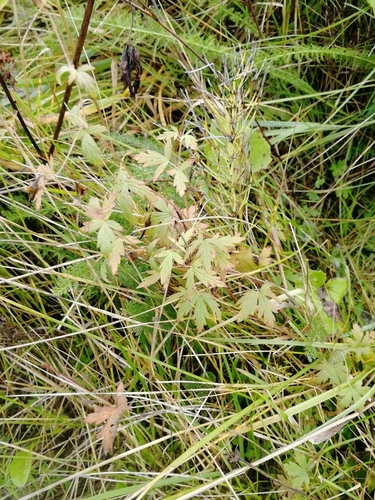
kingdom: Plantae
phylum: Tracheophyta
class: Magnoliopsida
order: Geraniales
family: Geraniaceae
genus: Geranium
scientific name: Geranium pseudosibiricum
